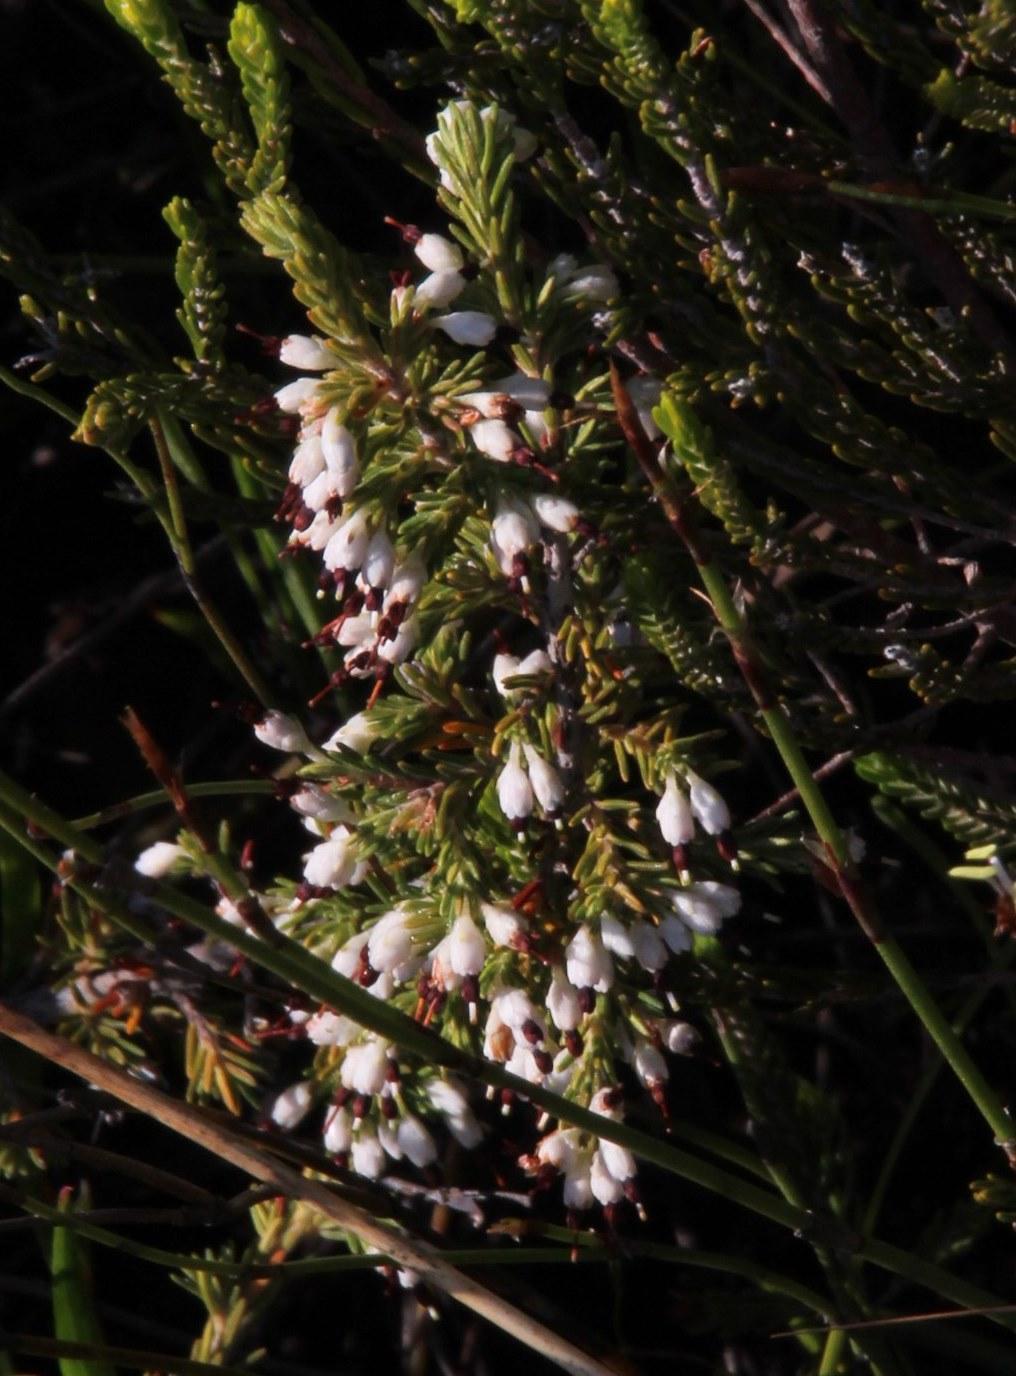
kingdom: Plantae
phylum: Tracheophyta
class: Magnoliopsida
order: Ericales
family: Ericaceae
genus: Erica
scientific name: Erica imbricata
